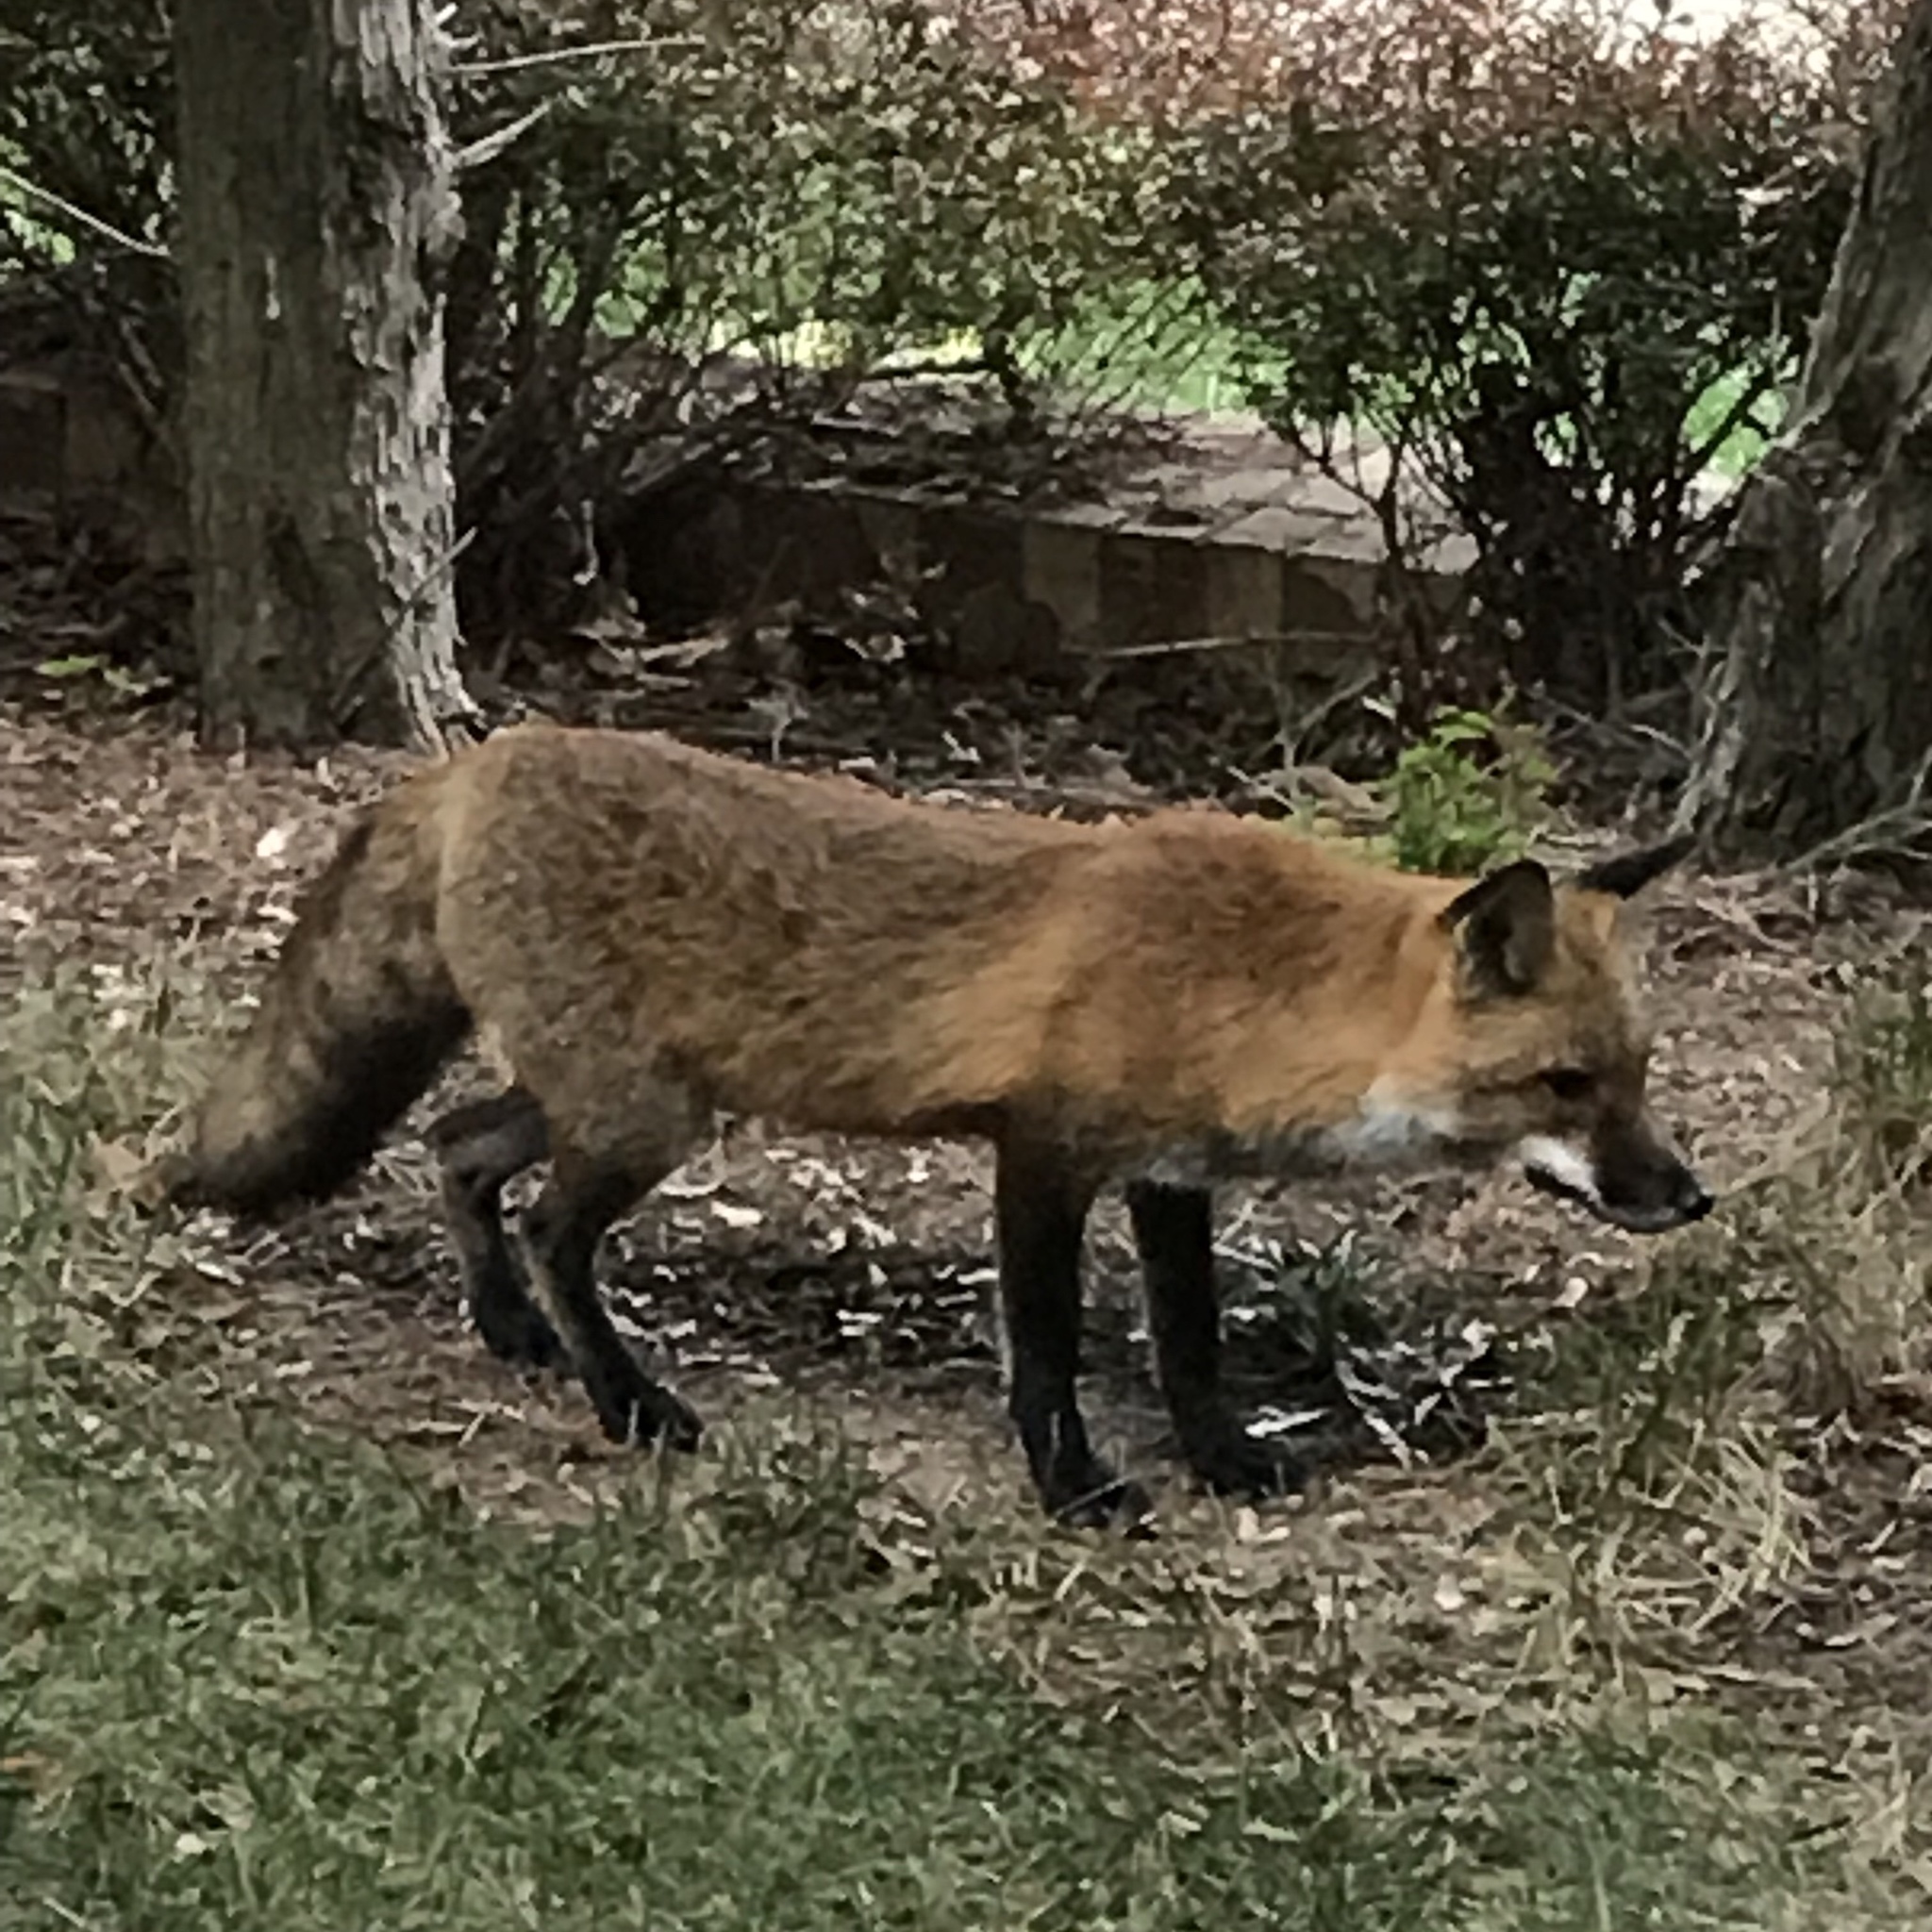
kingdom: Animalia
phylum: Chordata
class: Mammalia
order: Carnivora
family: Canidae
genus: Vulpes
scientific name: Vulpes vulpes
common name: Red fox
